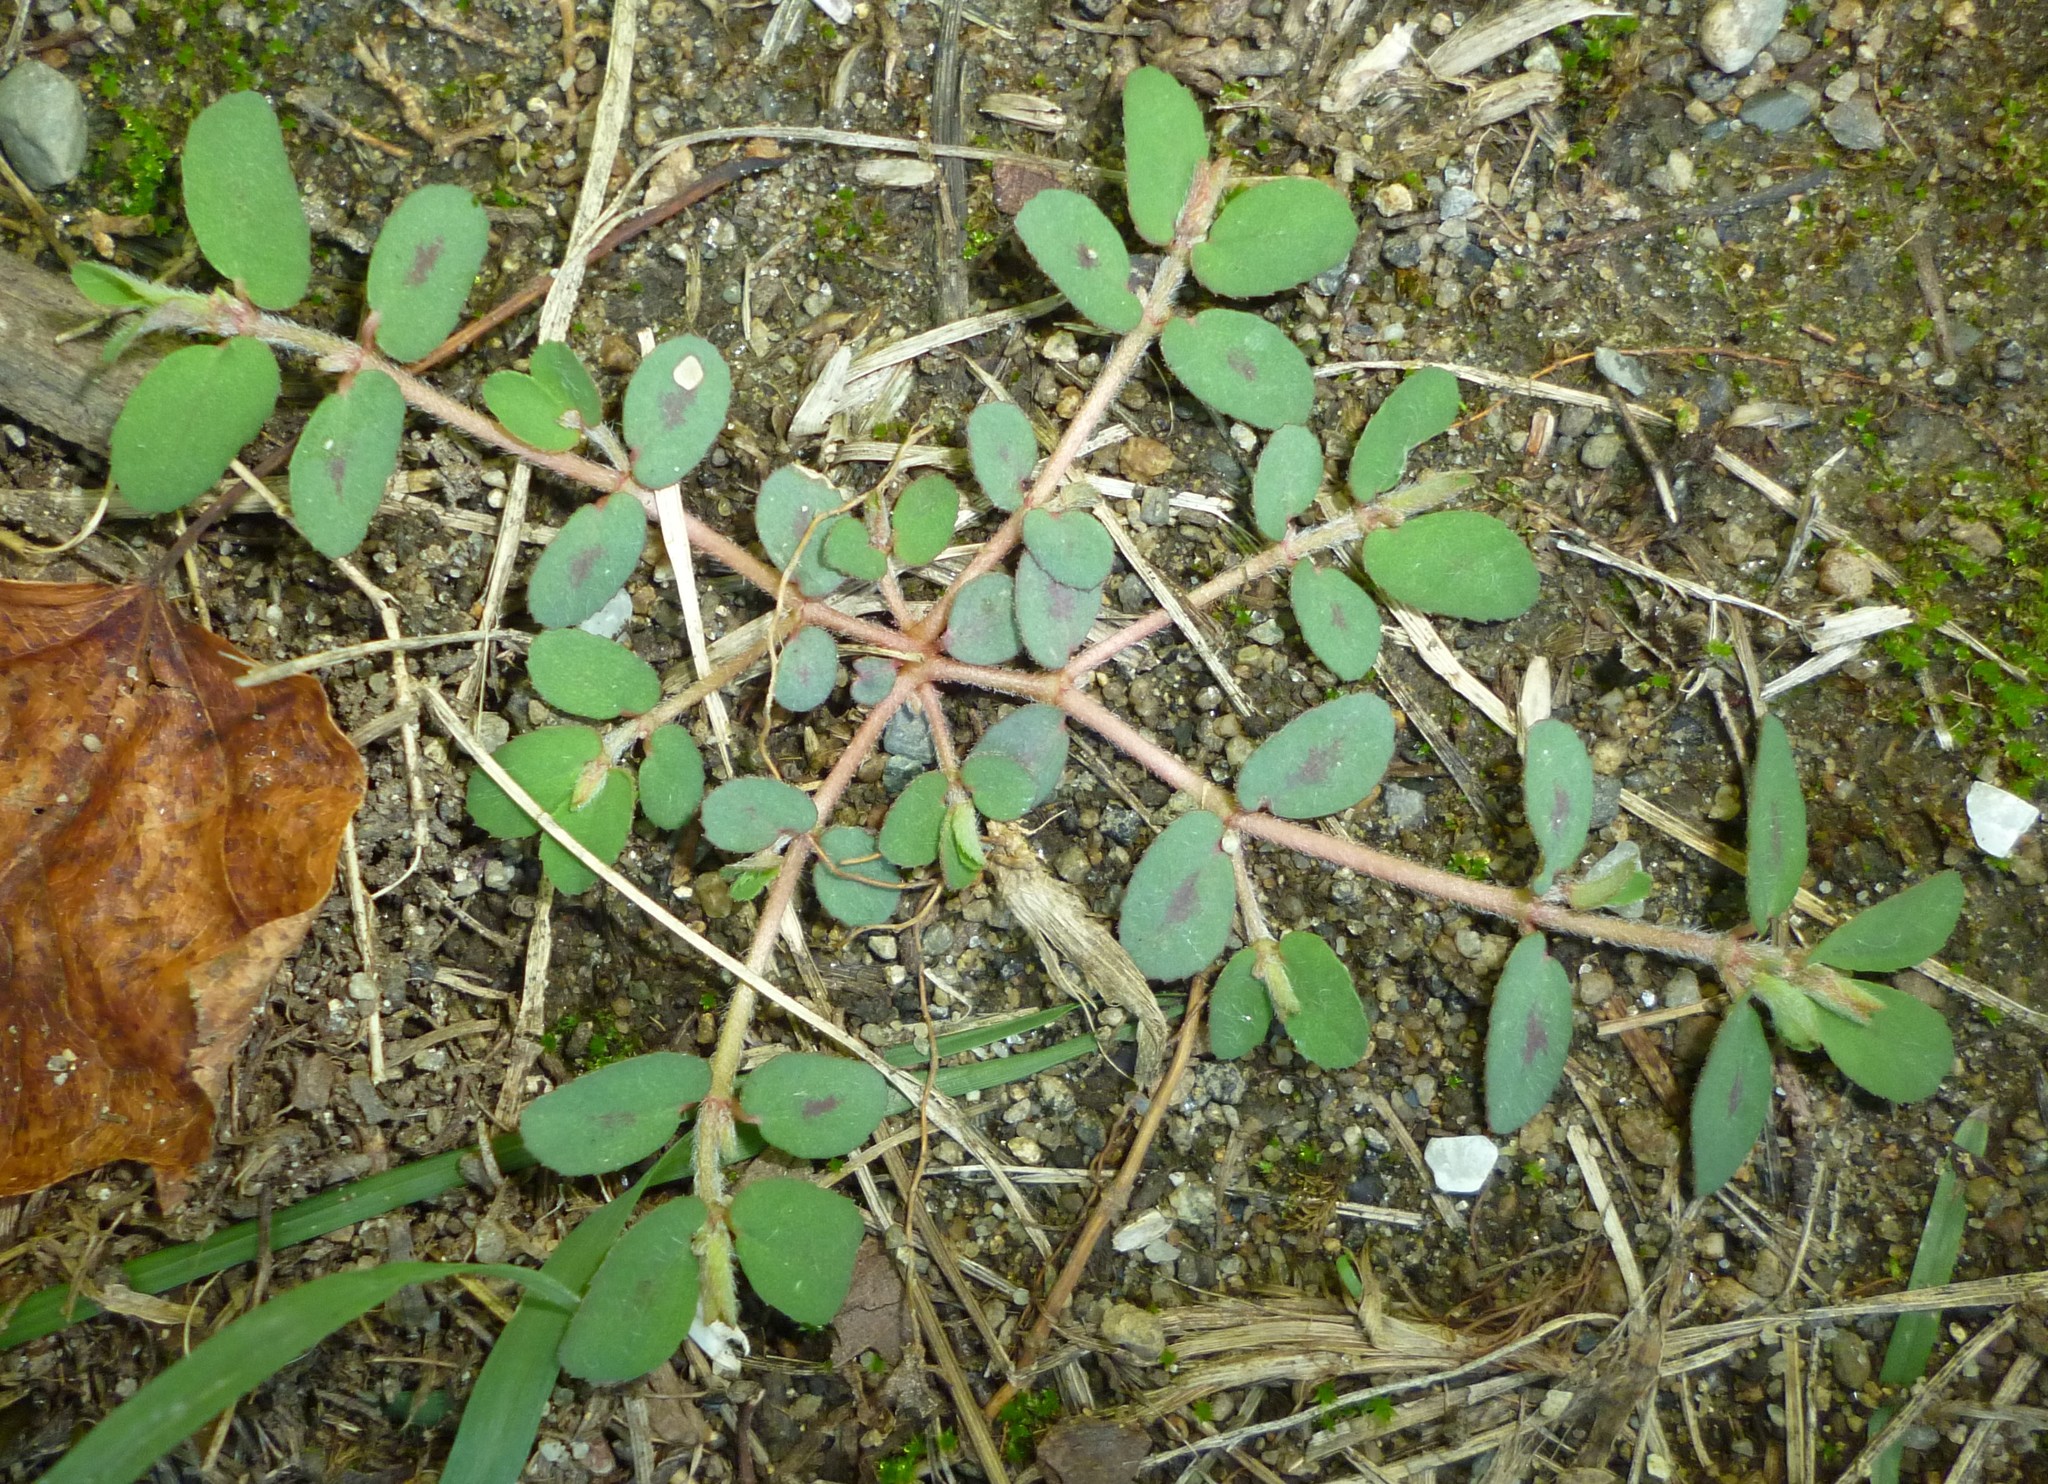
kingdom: Plantae
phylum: Tracheophyta
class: Magnoliopsida
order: Malpighiales
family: Euphorbiaceae
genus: Euphorbia
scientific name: Euphorbia maculata
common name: Spotted spurge
